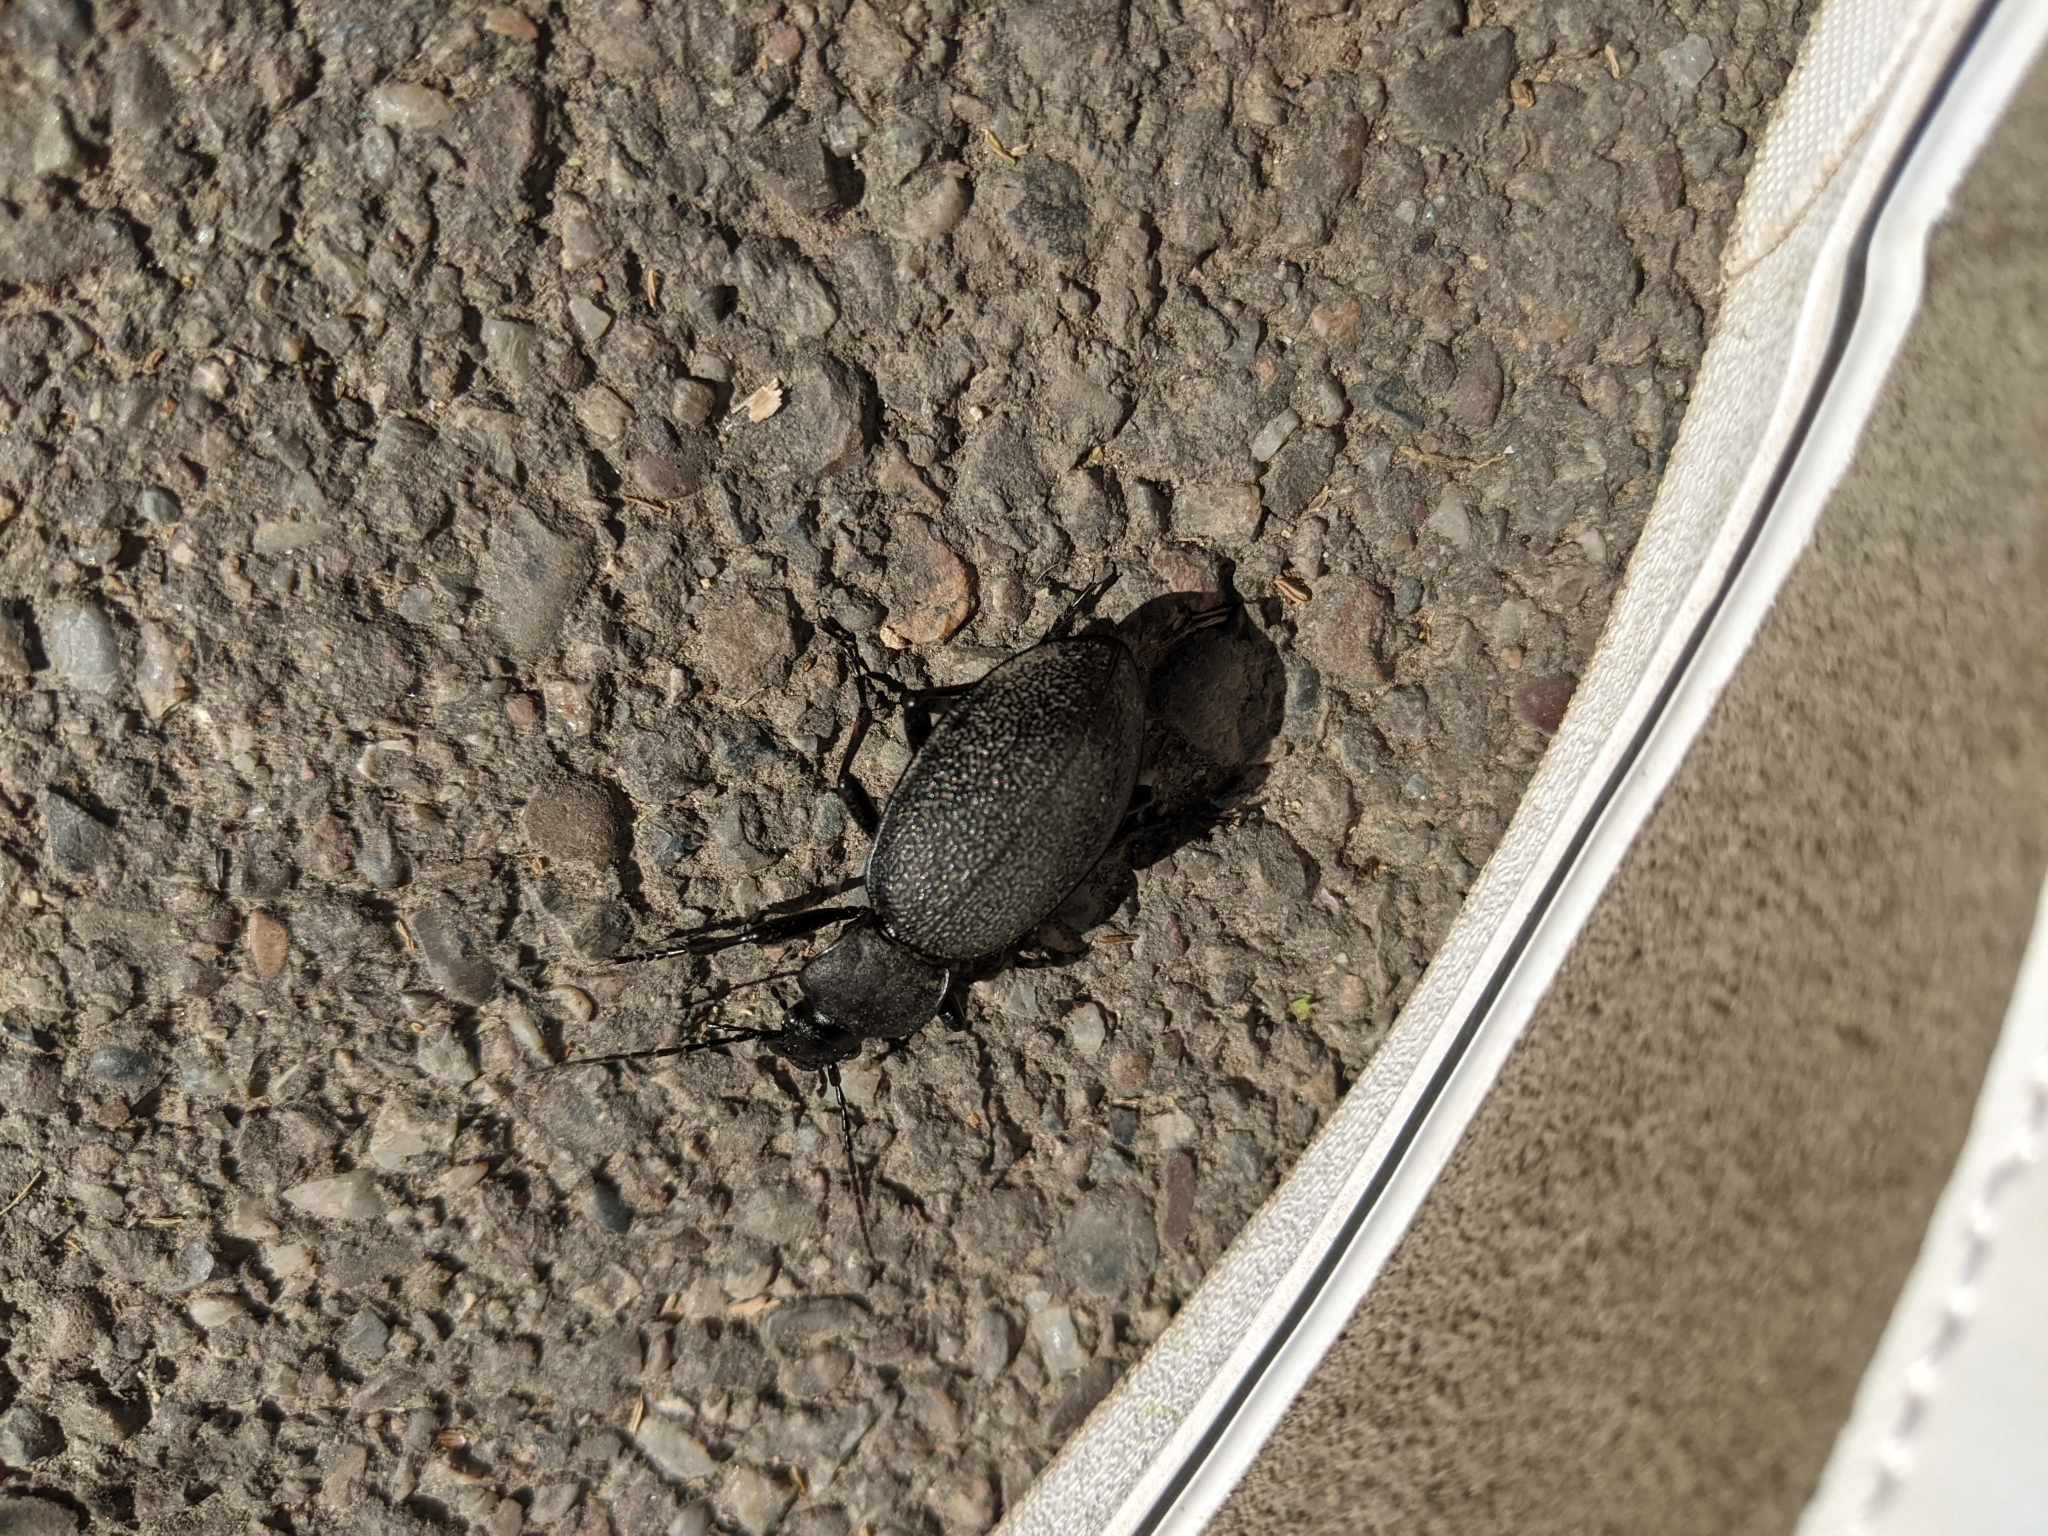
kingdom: Animalia
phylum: Arthropoda
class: Insecta
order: Coleoptera
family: Carabidae
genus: Carabus
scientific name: Carabus coriaceus
